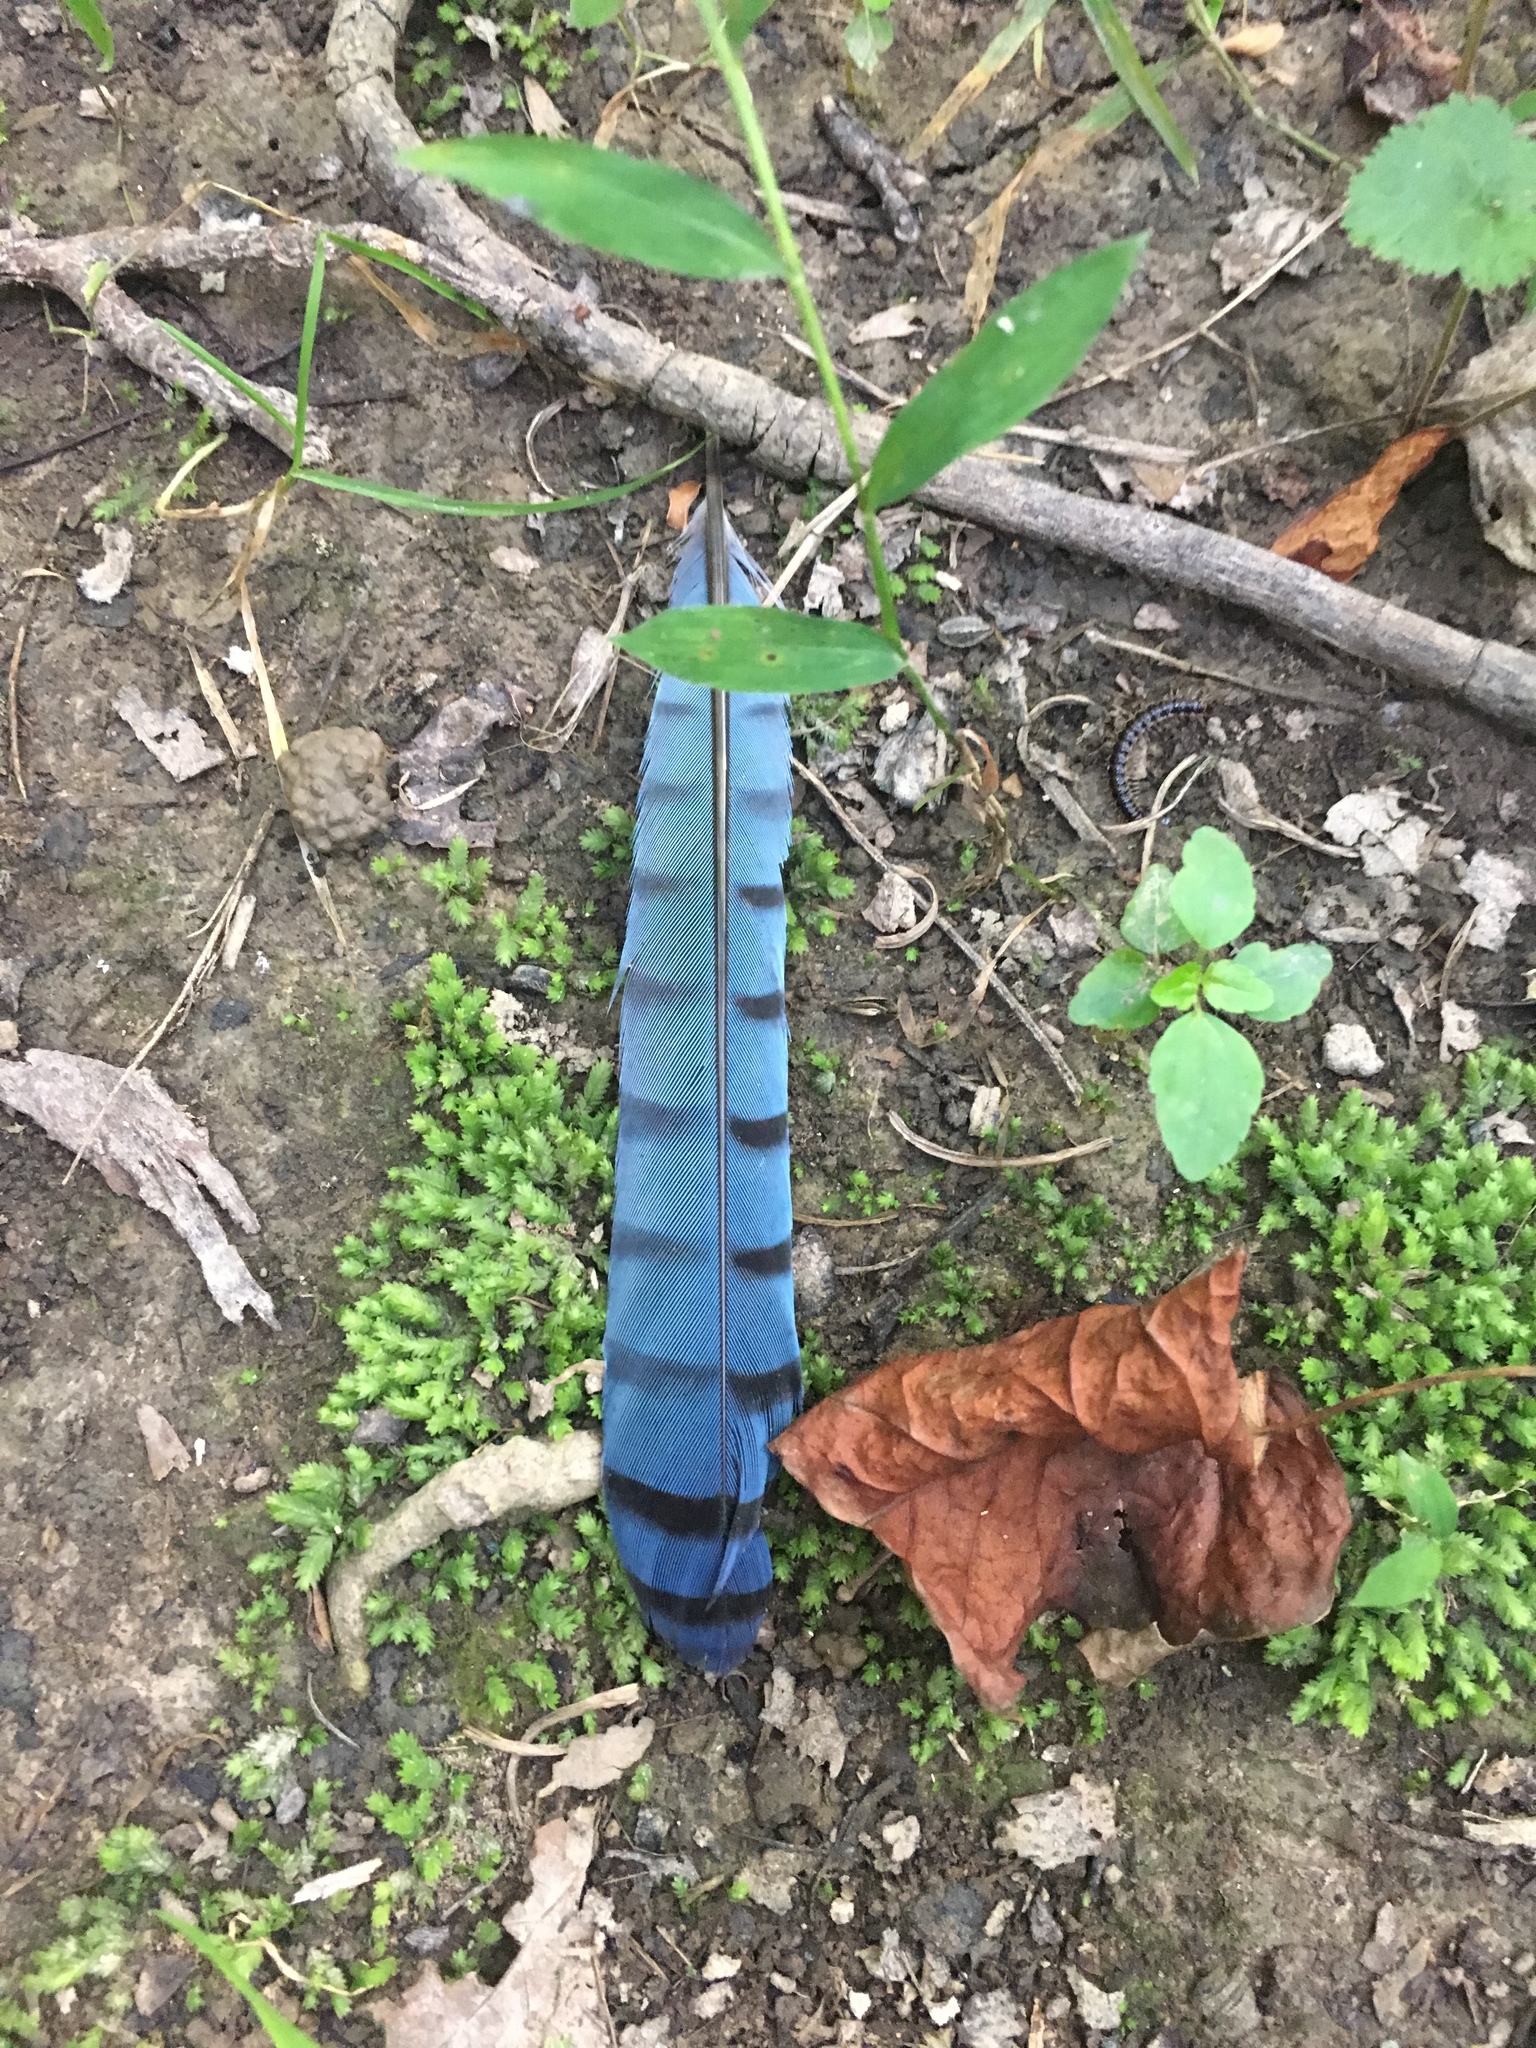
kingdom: Animalia
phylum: Chordata
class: Aves
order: Passeriformes
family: Corvidae
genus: Cyanocitta
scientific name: Cyanocitta cristata
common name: Blue jay
